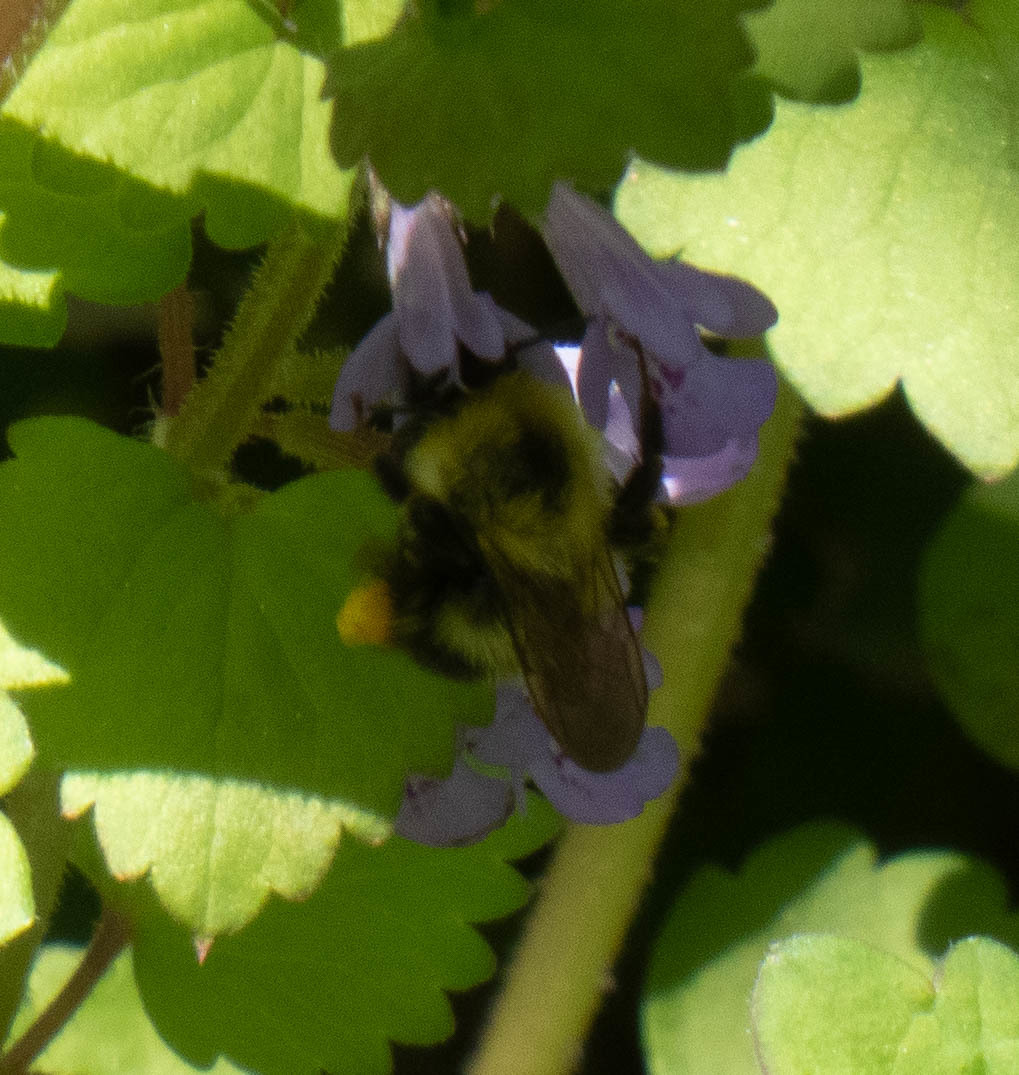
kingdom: Animalia
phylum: Arthropoda
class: Insecta
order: Hymenoptera
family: Apidae
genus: Bombus
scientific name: Bombus bimaculatus
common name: Two-spotted bumble bee
